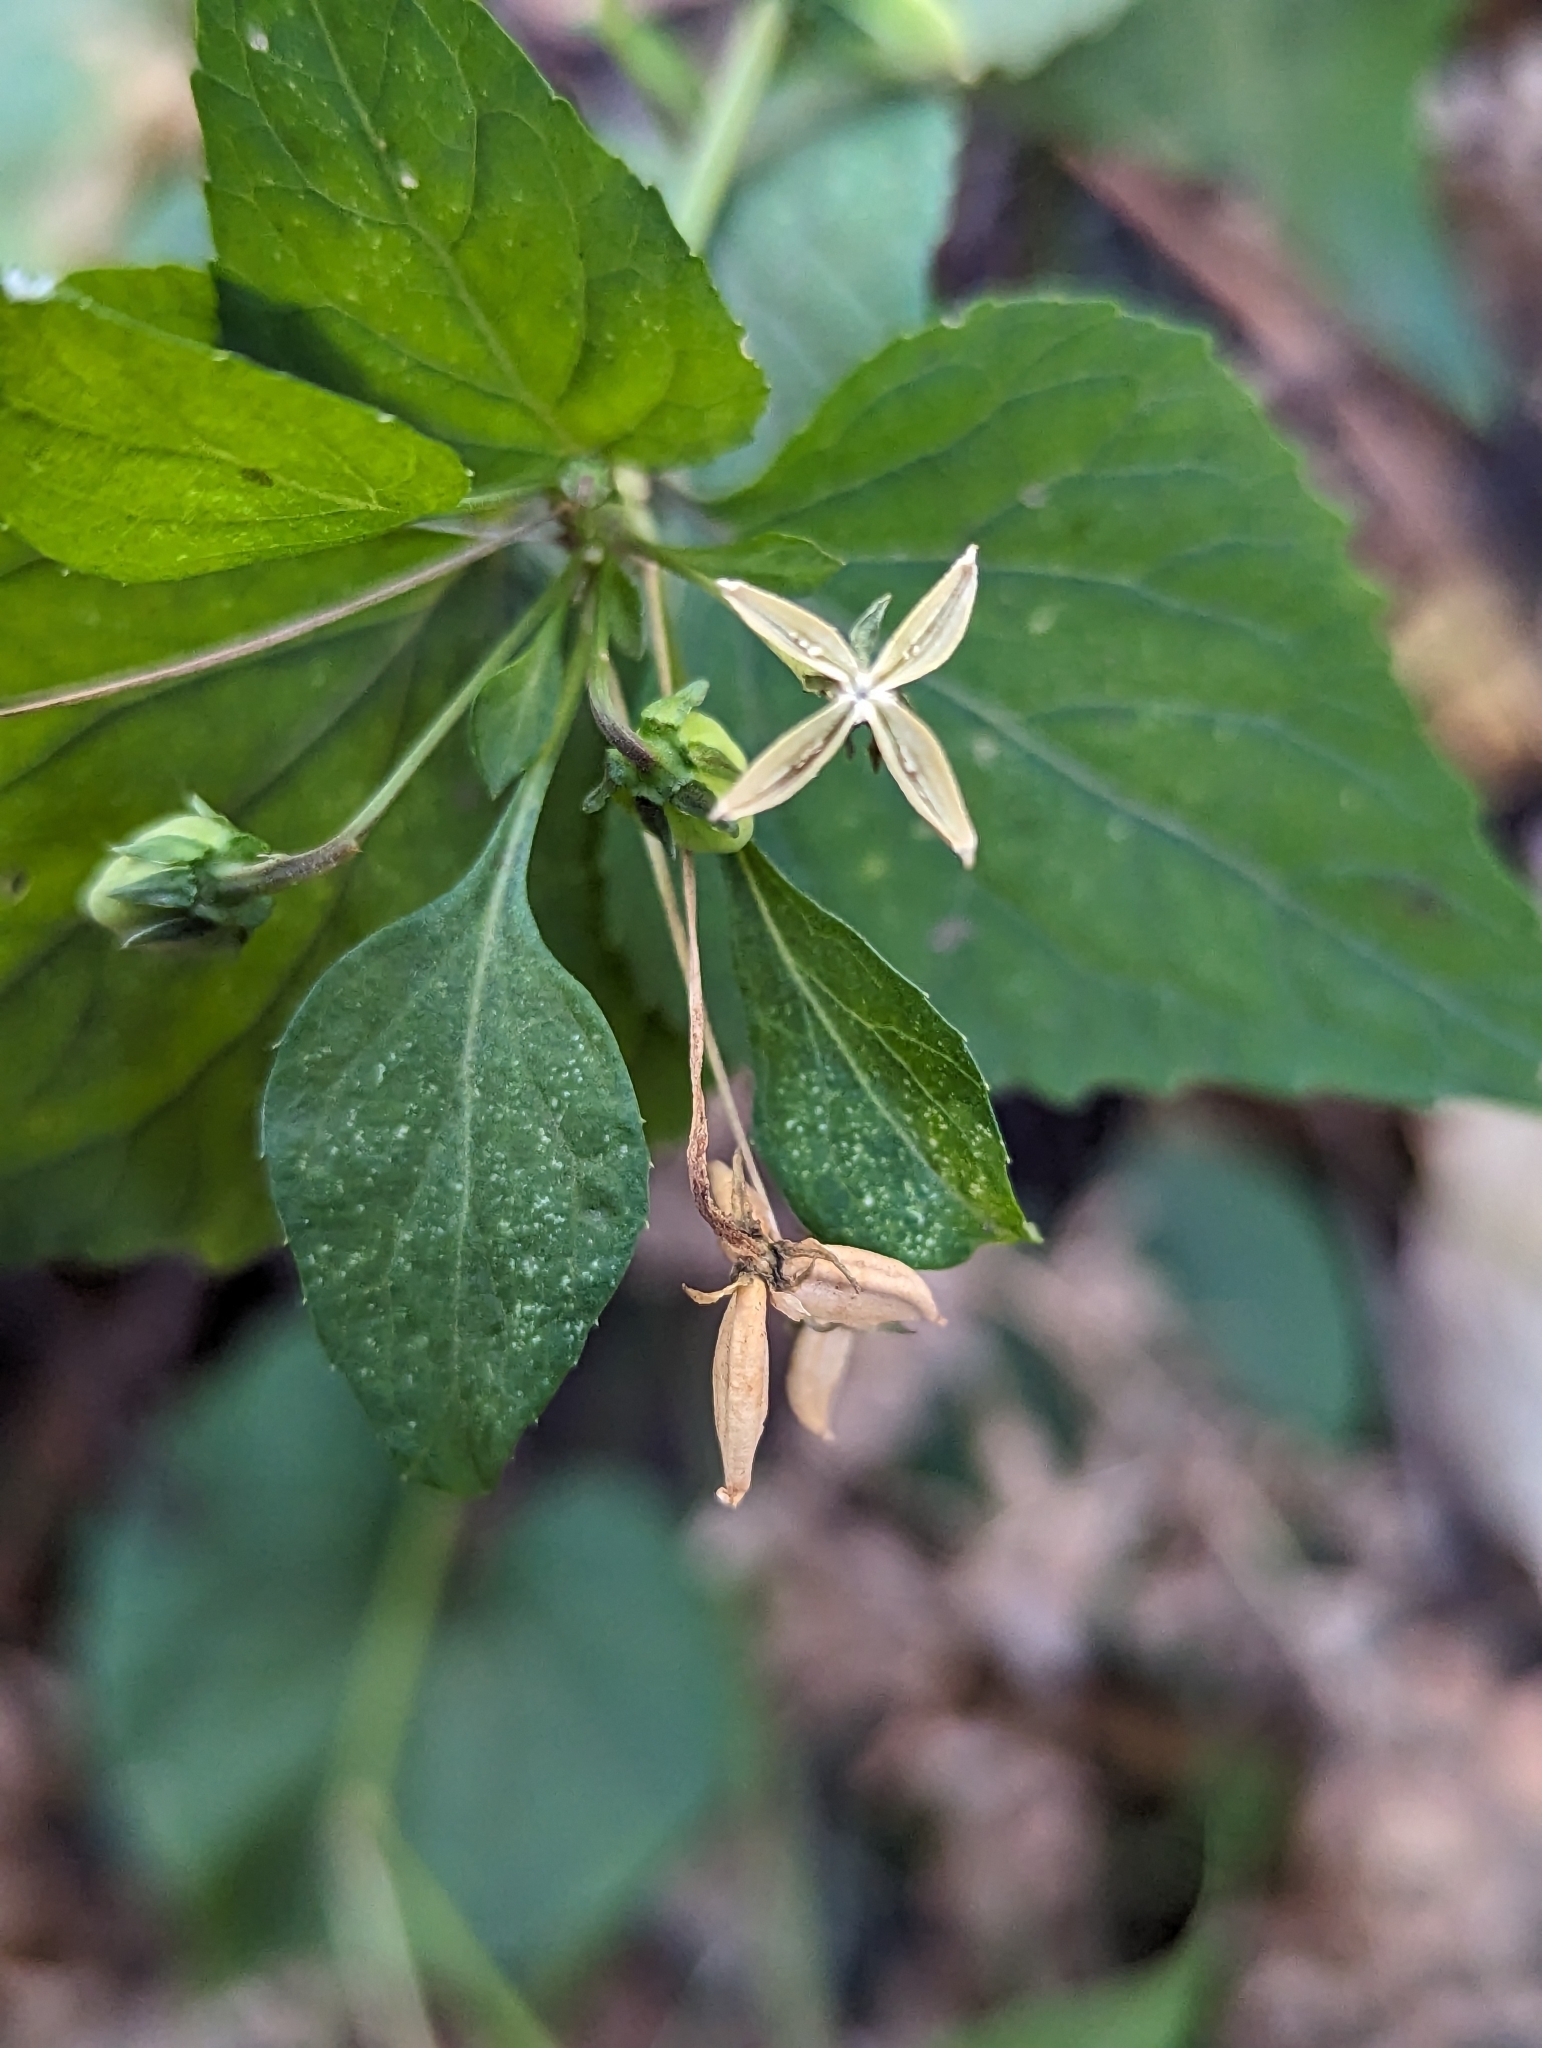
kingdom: Plantae
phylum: Tracheophyta
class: Magnoliopsida
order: Malpighiales
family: Violaceae
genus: Viola
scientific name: Viola canadensis
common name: Canada violet
